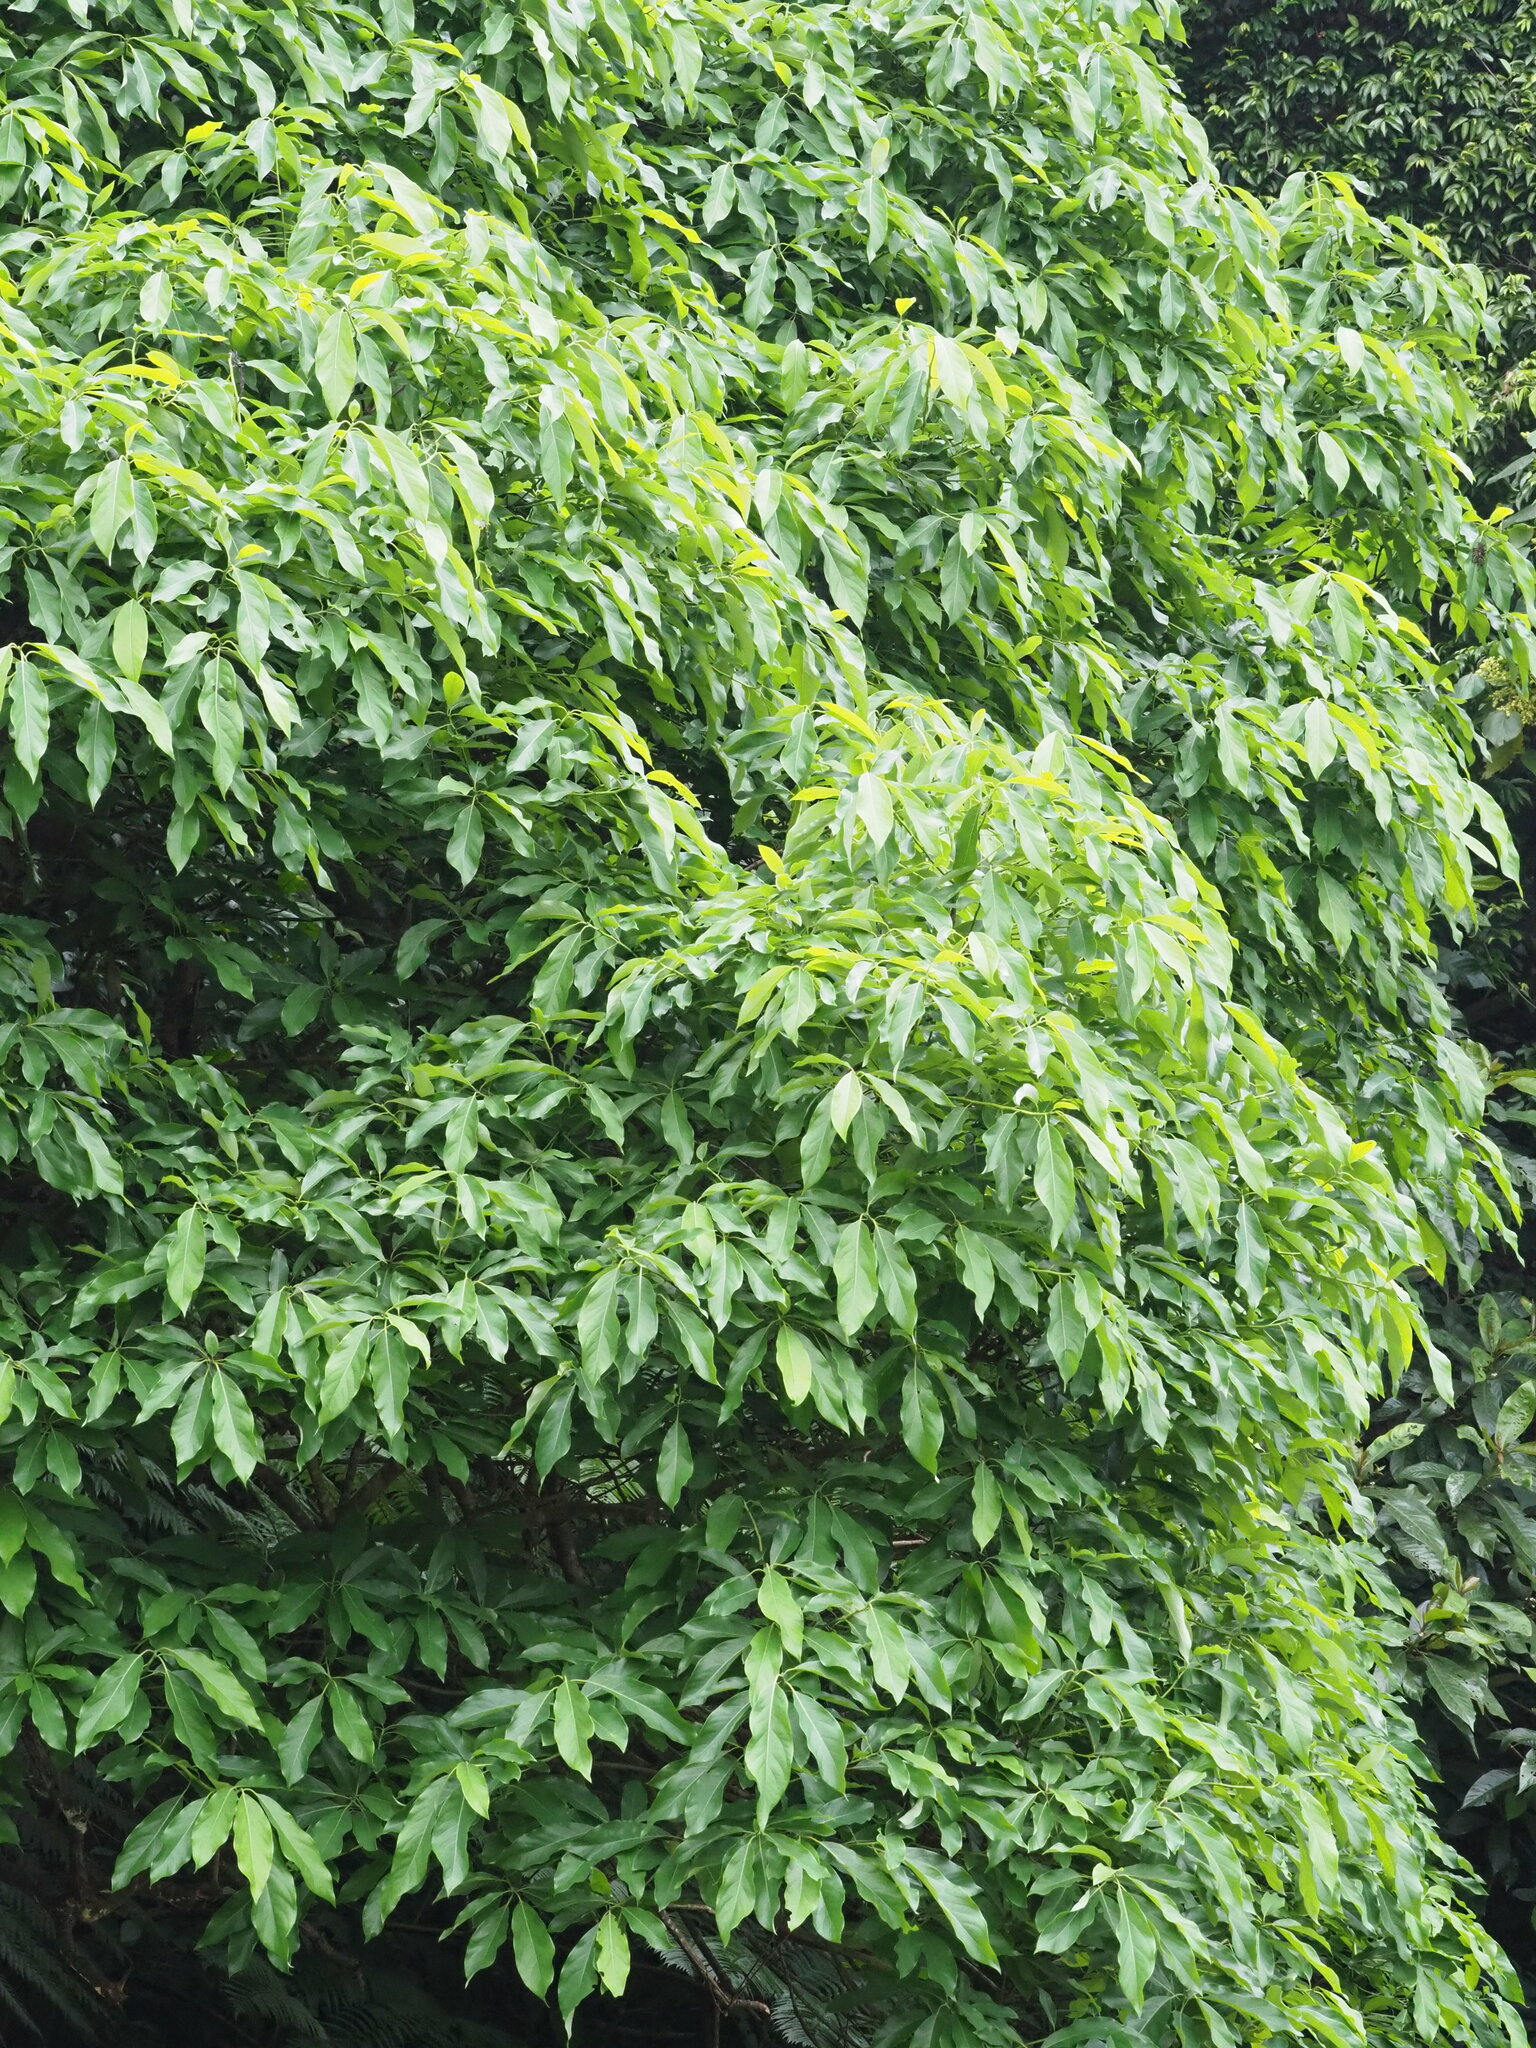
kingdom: Plantae
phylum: Tracheophyta
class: Magnoliopsida
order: Laurales
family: Lauraceae
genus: Lindera
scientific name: Lindera megaphylla
